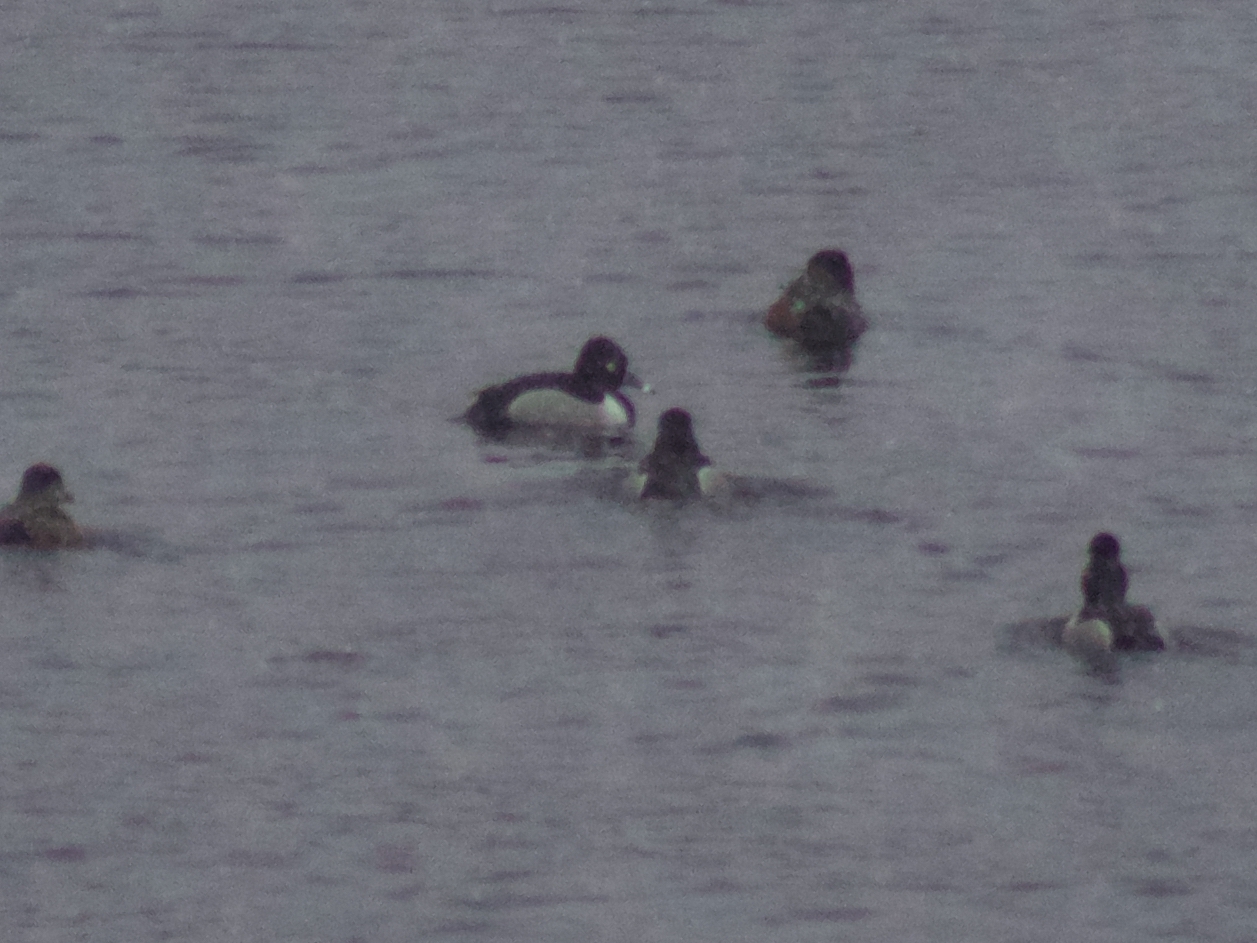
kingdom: Animalia
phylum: Chordata
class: Aves
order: Anseriformes
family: Anatidae
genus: Aythya
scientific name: Aythya collaris
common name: Ring-necked duck
